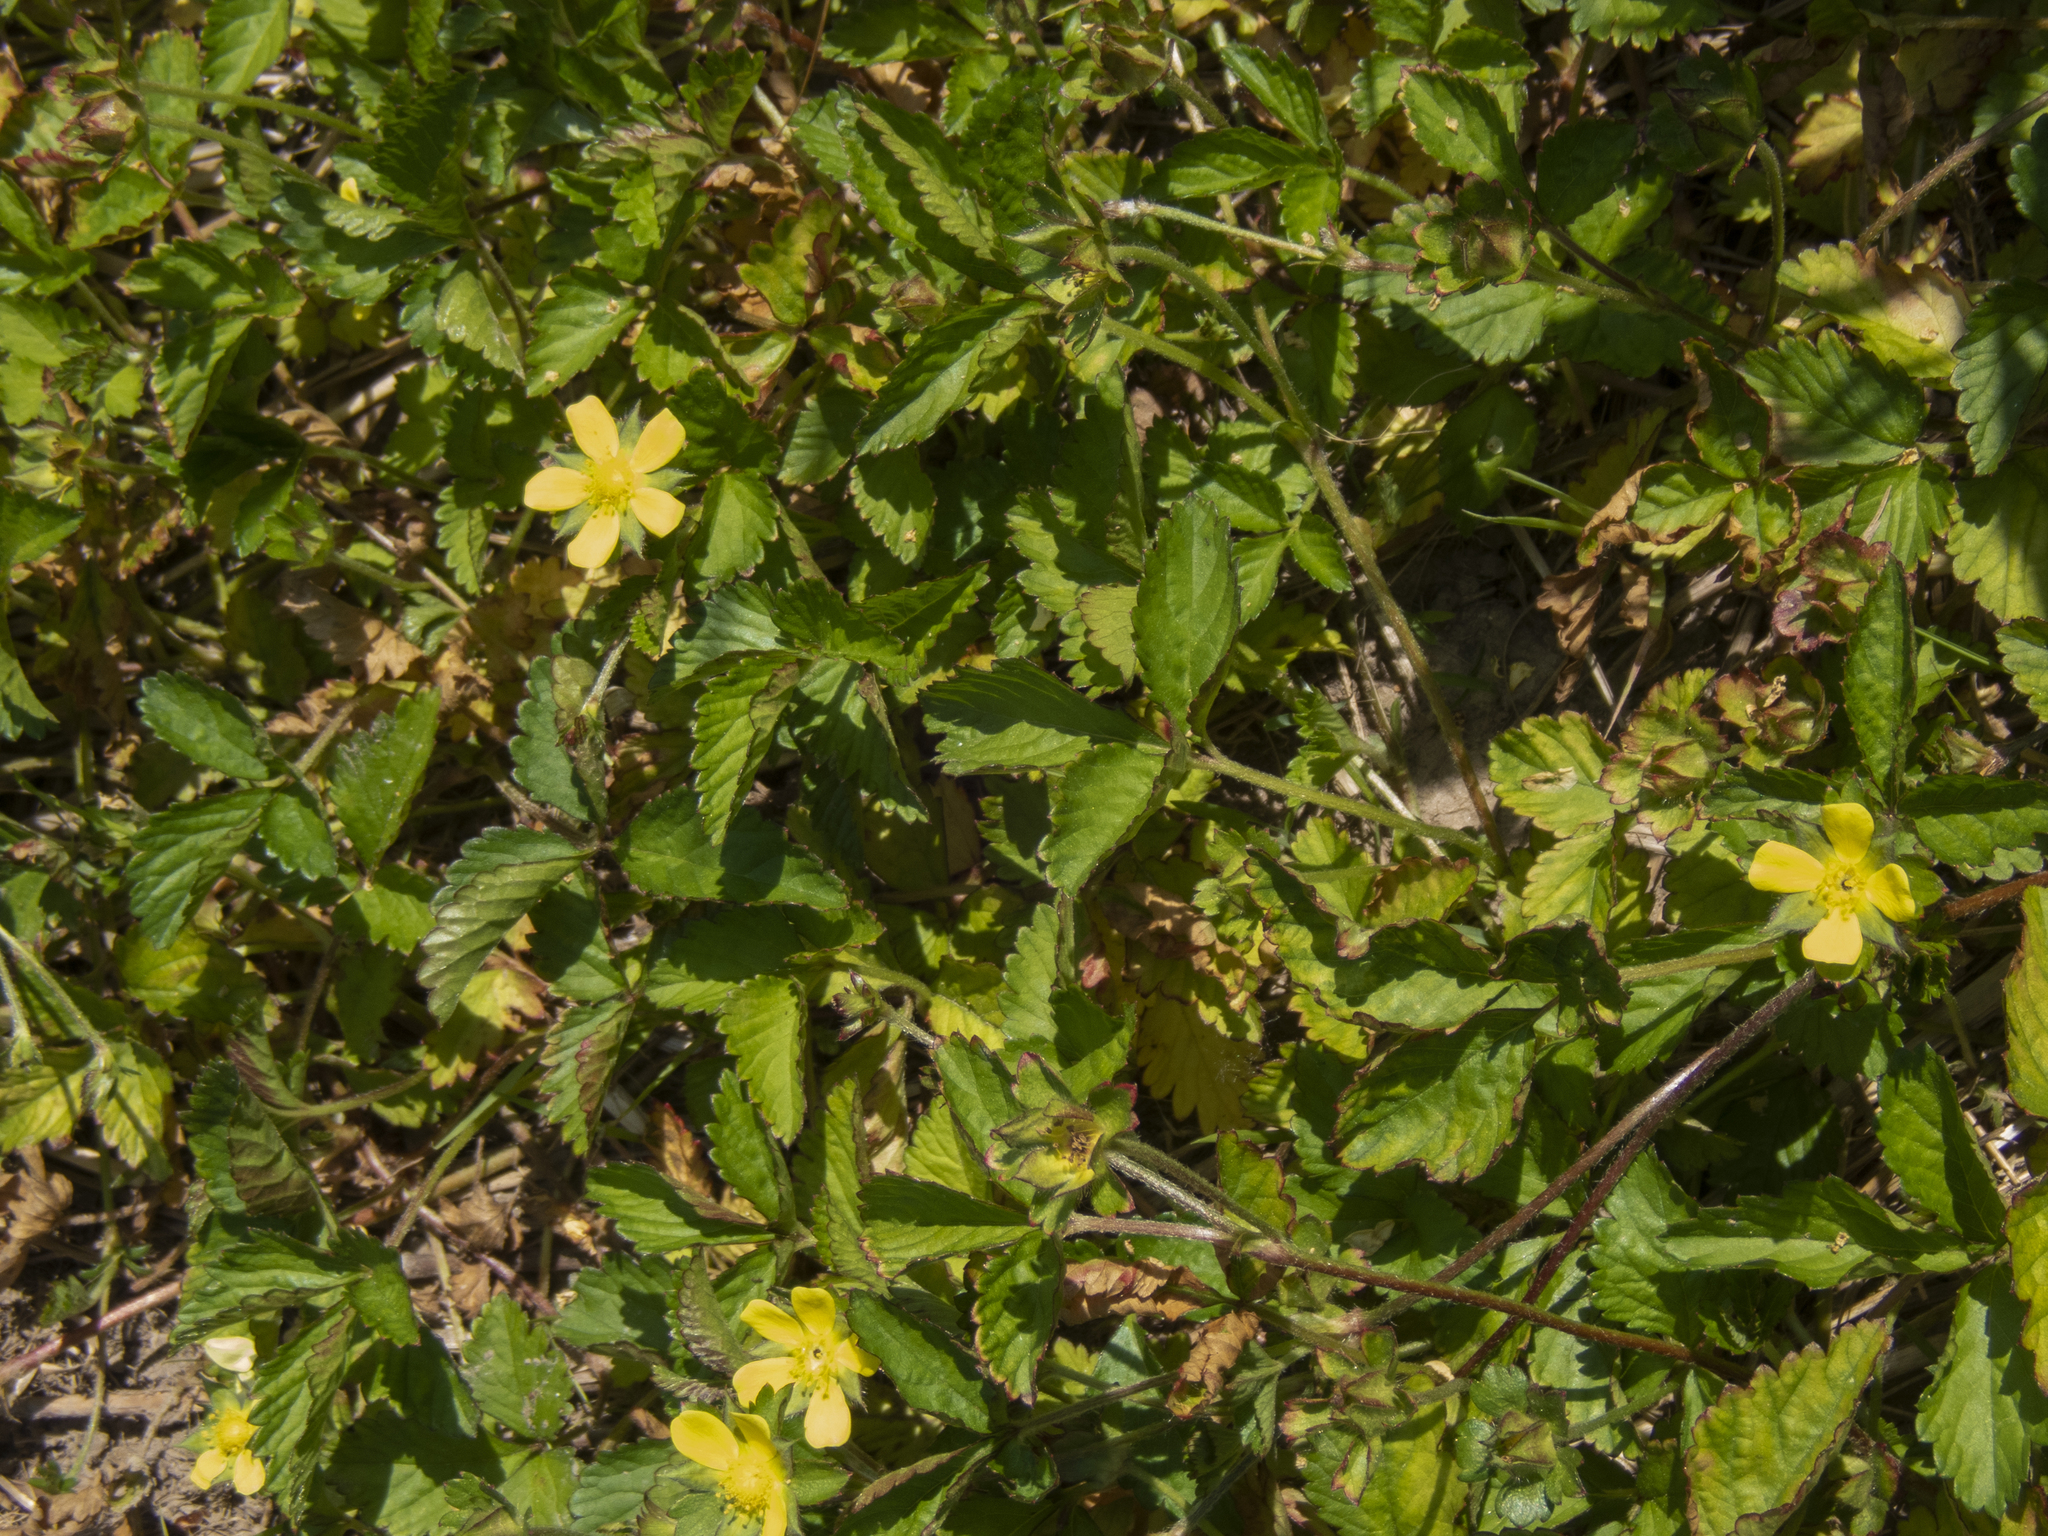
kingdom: Plantae
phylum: Tracheophyta
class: Magnoliopsida
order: Rosales
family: Rosaceae
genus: Potentilla
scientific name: Potentilla indica
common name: Yellow-flowered strawberry
